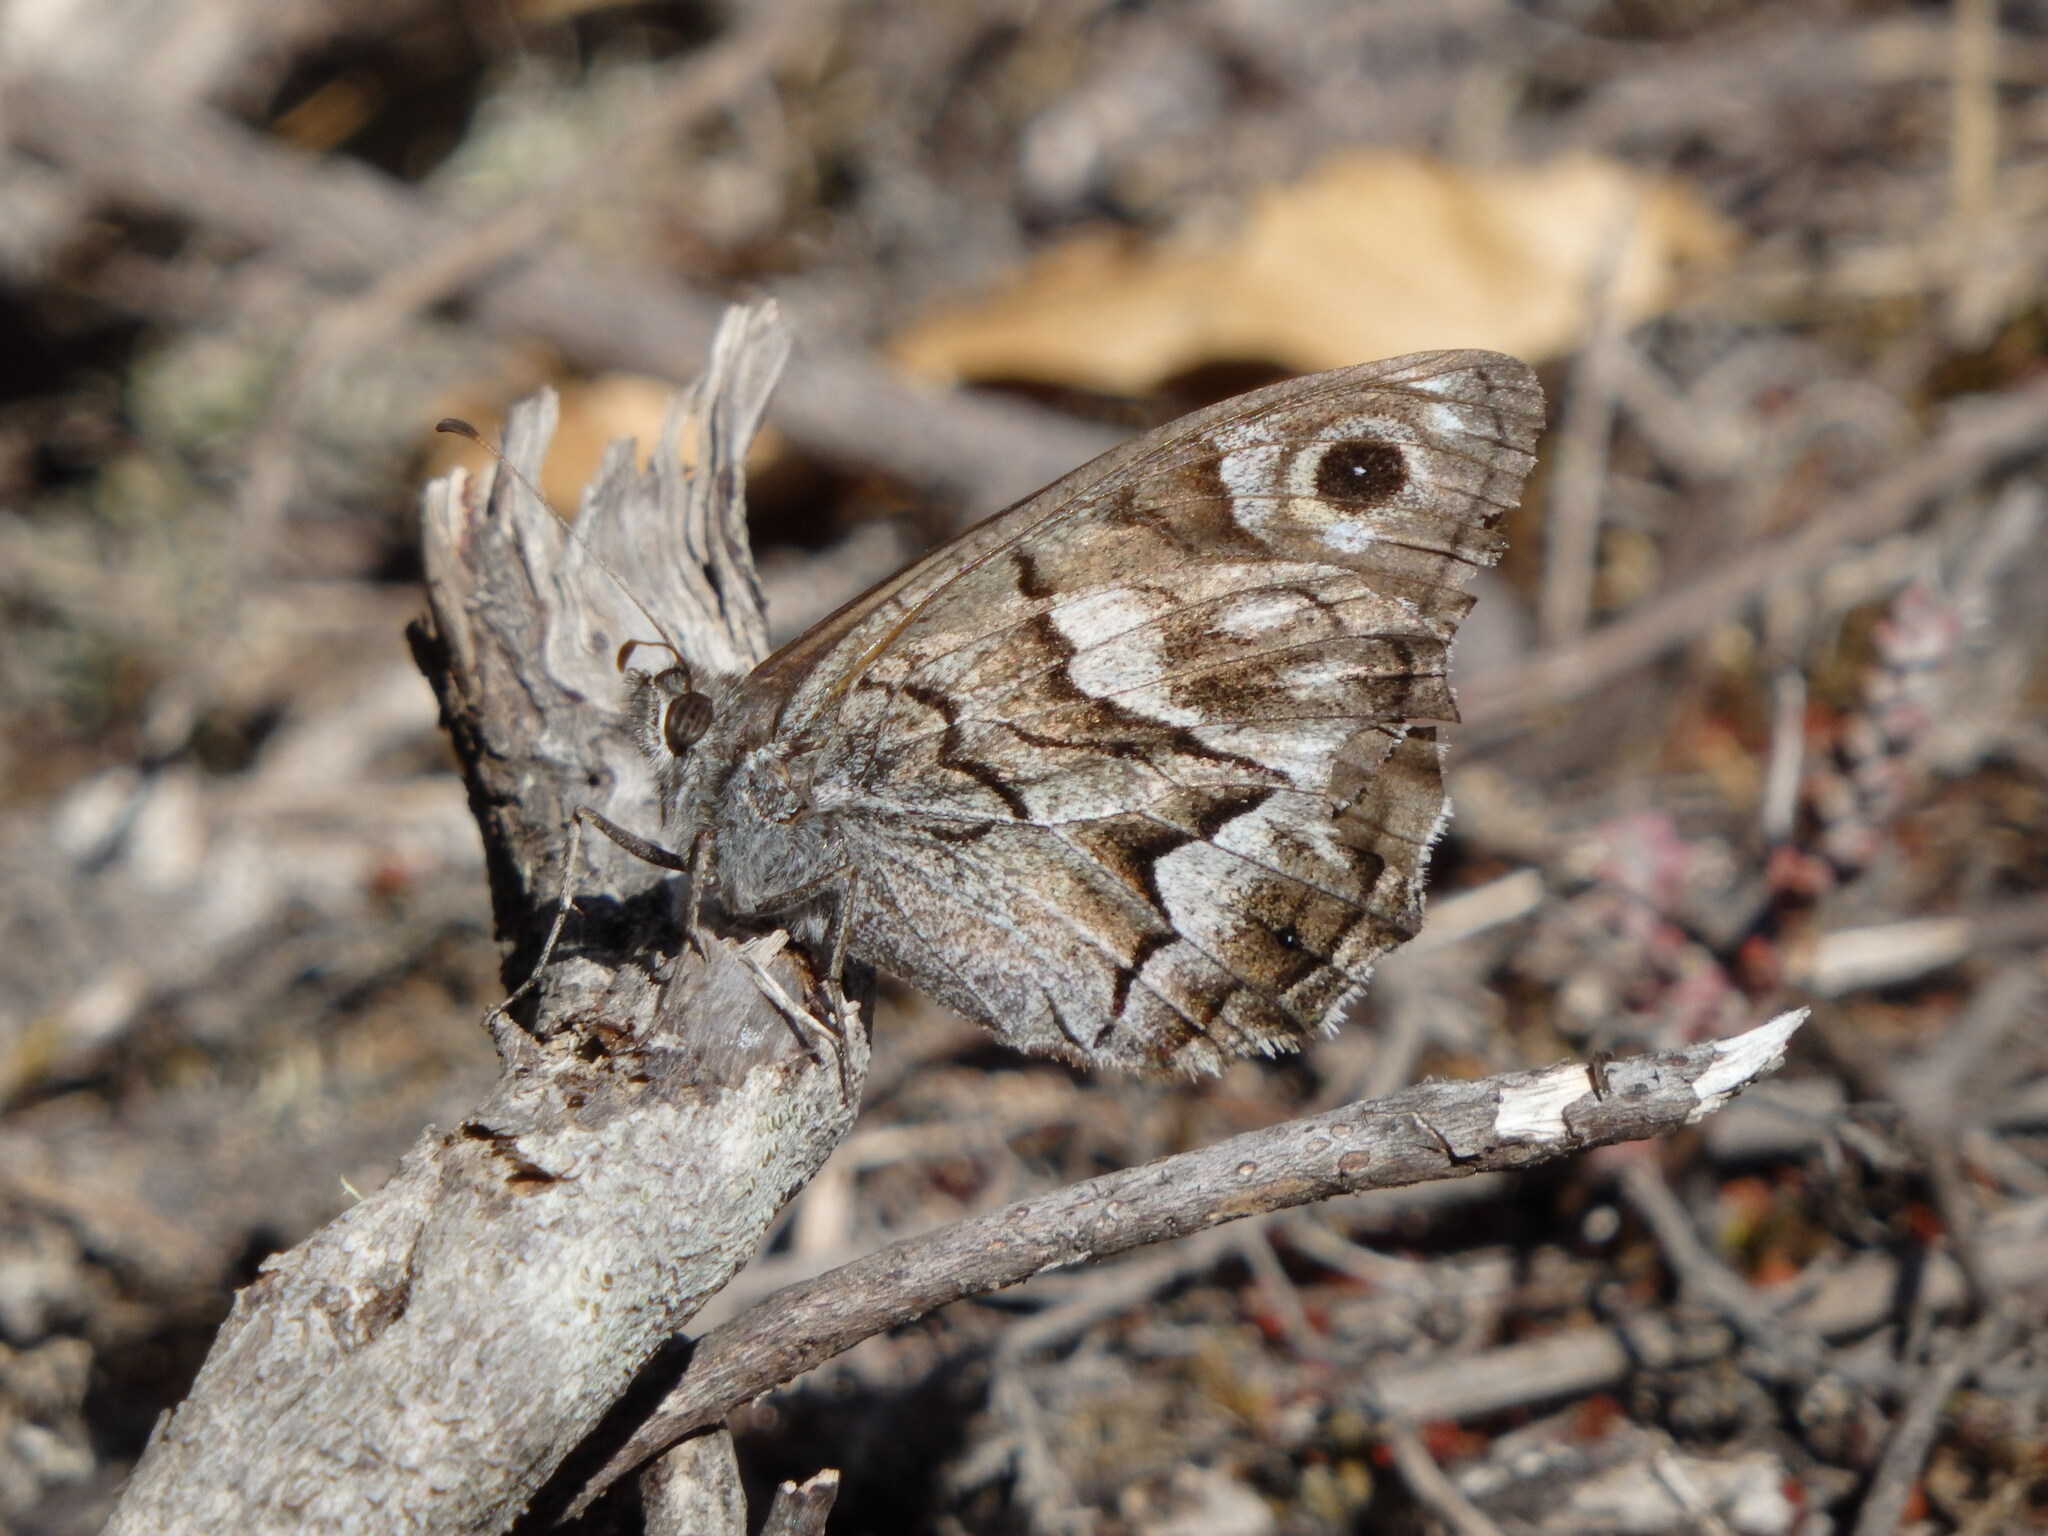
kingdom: Animalia
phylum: Arthropoda
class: Insecta
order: Lepidoptera
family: Nymphalidae
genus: Hipparchia
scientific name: Hipparchia fidia
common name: Striped grayling
